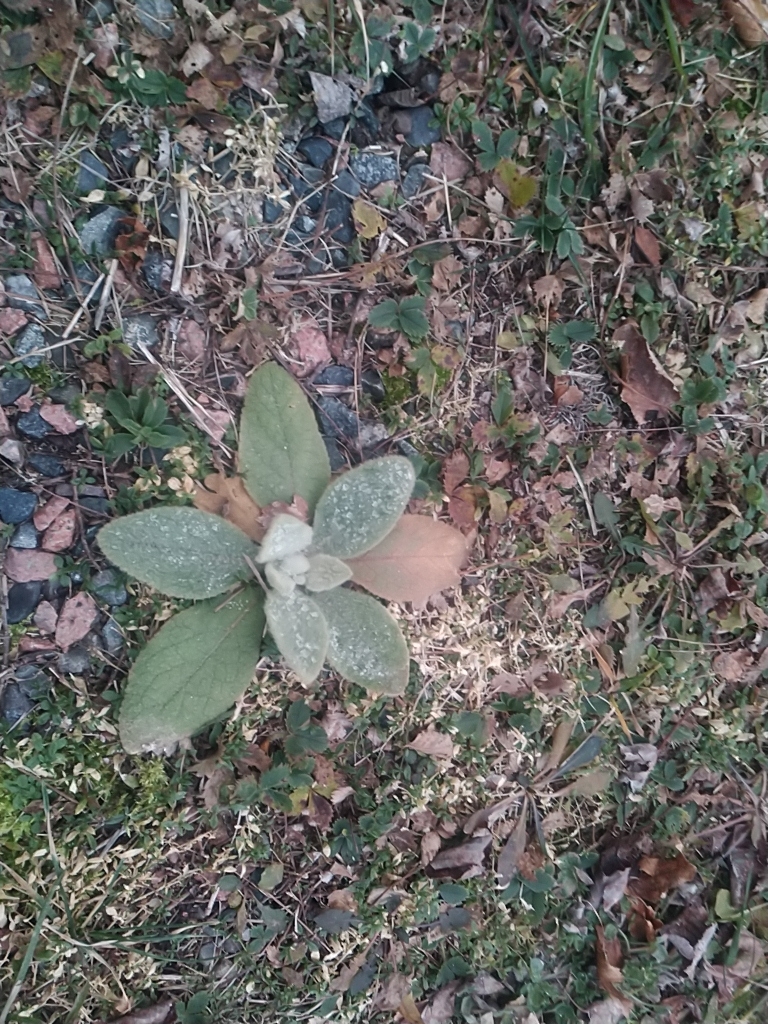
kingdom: Plantae
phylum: Tracheophyta
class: Magnoliopsida
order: Lamiales
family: Scrophulariaceae
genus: Verbascum
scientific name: Verbascum thapsus
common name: Common mullein
